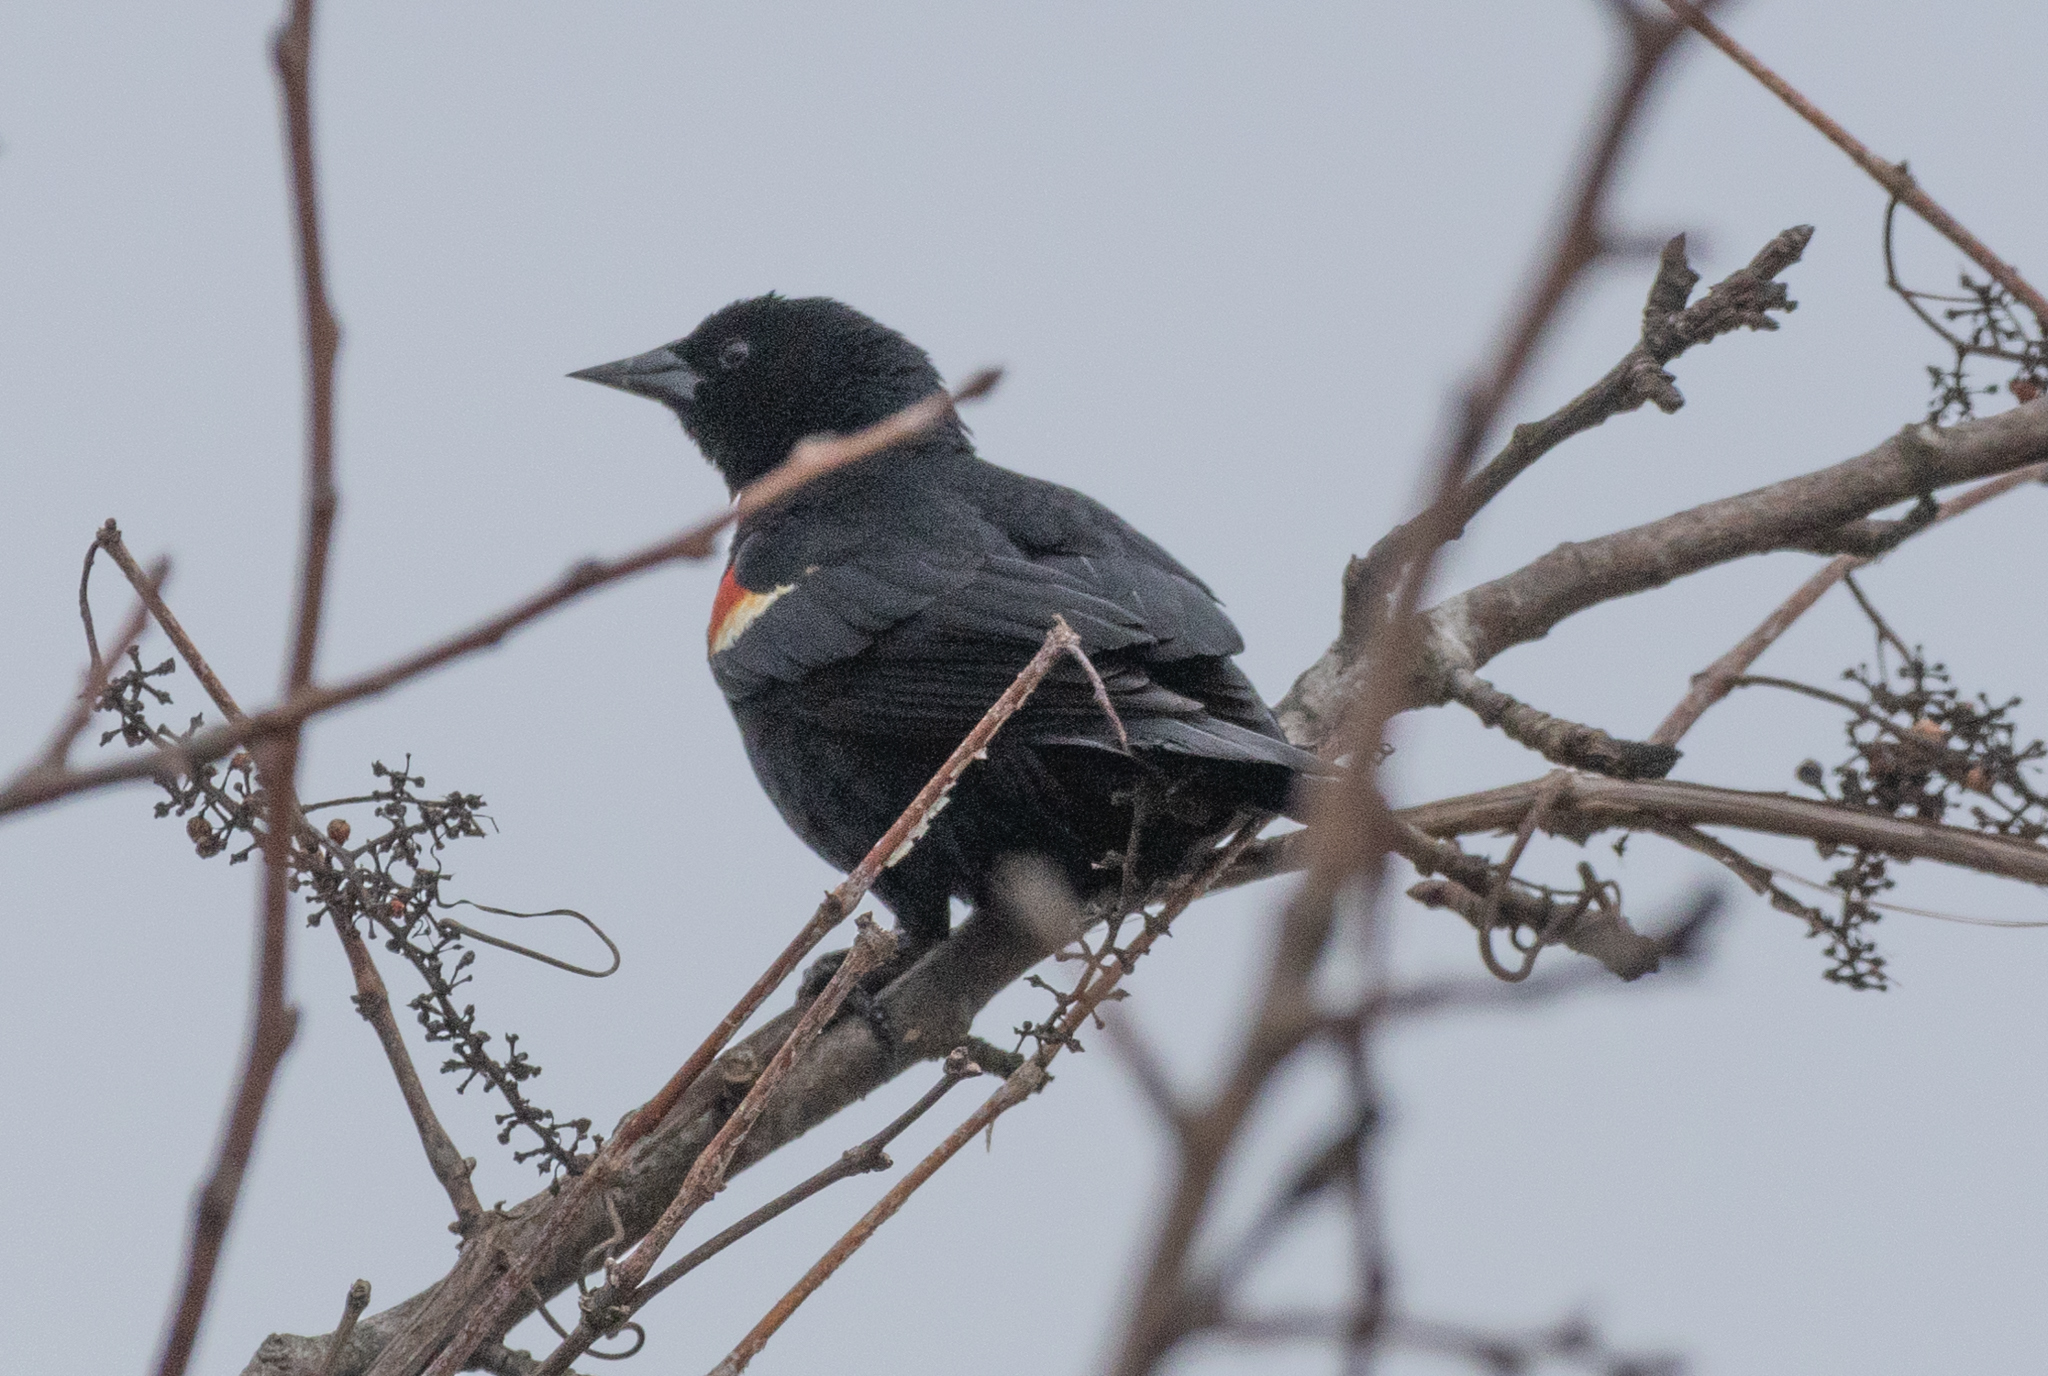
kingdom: Animalia
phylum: Chordata
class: Aves
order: Passeriformes
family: Icteridae
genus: Agelaius
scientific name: Agelaius phoeniceus
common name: Red-winged blackbird
